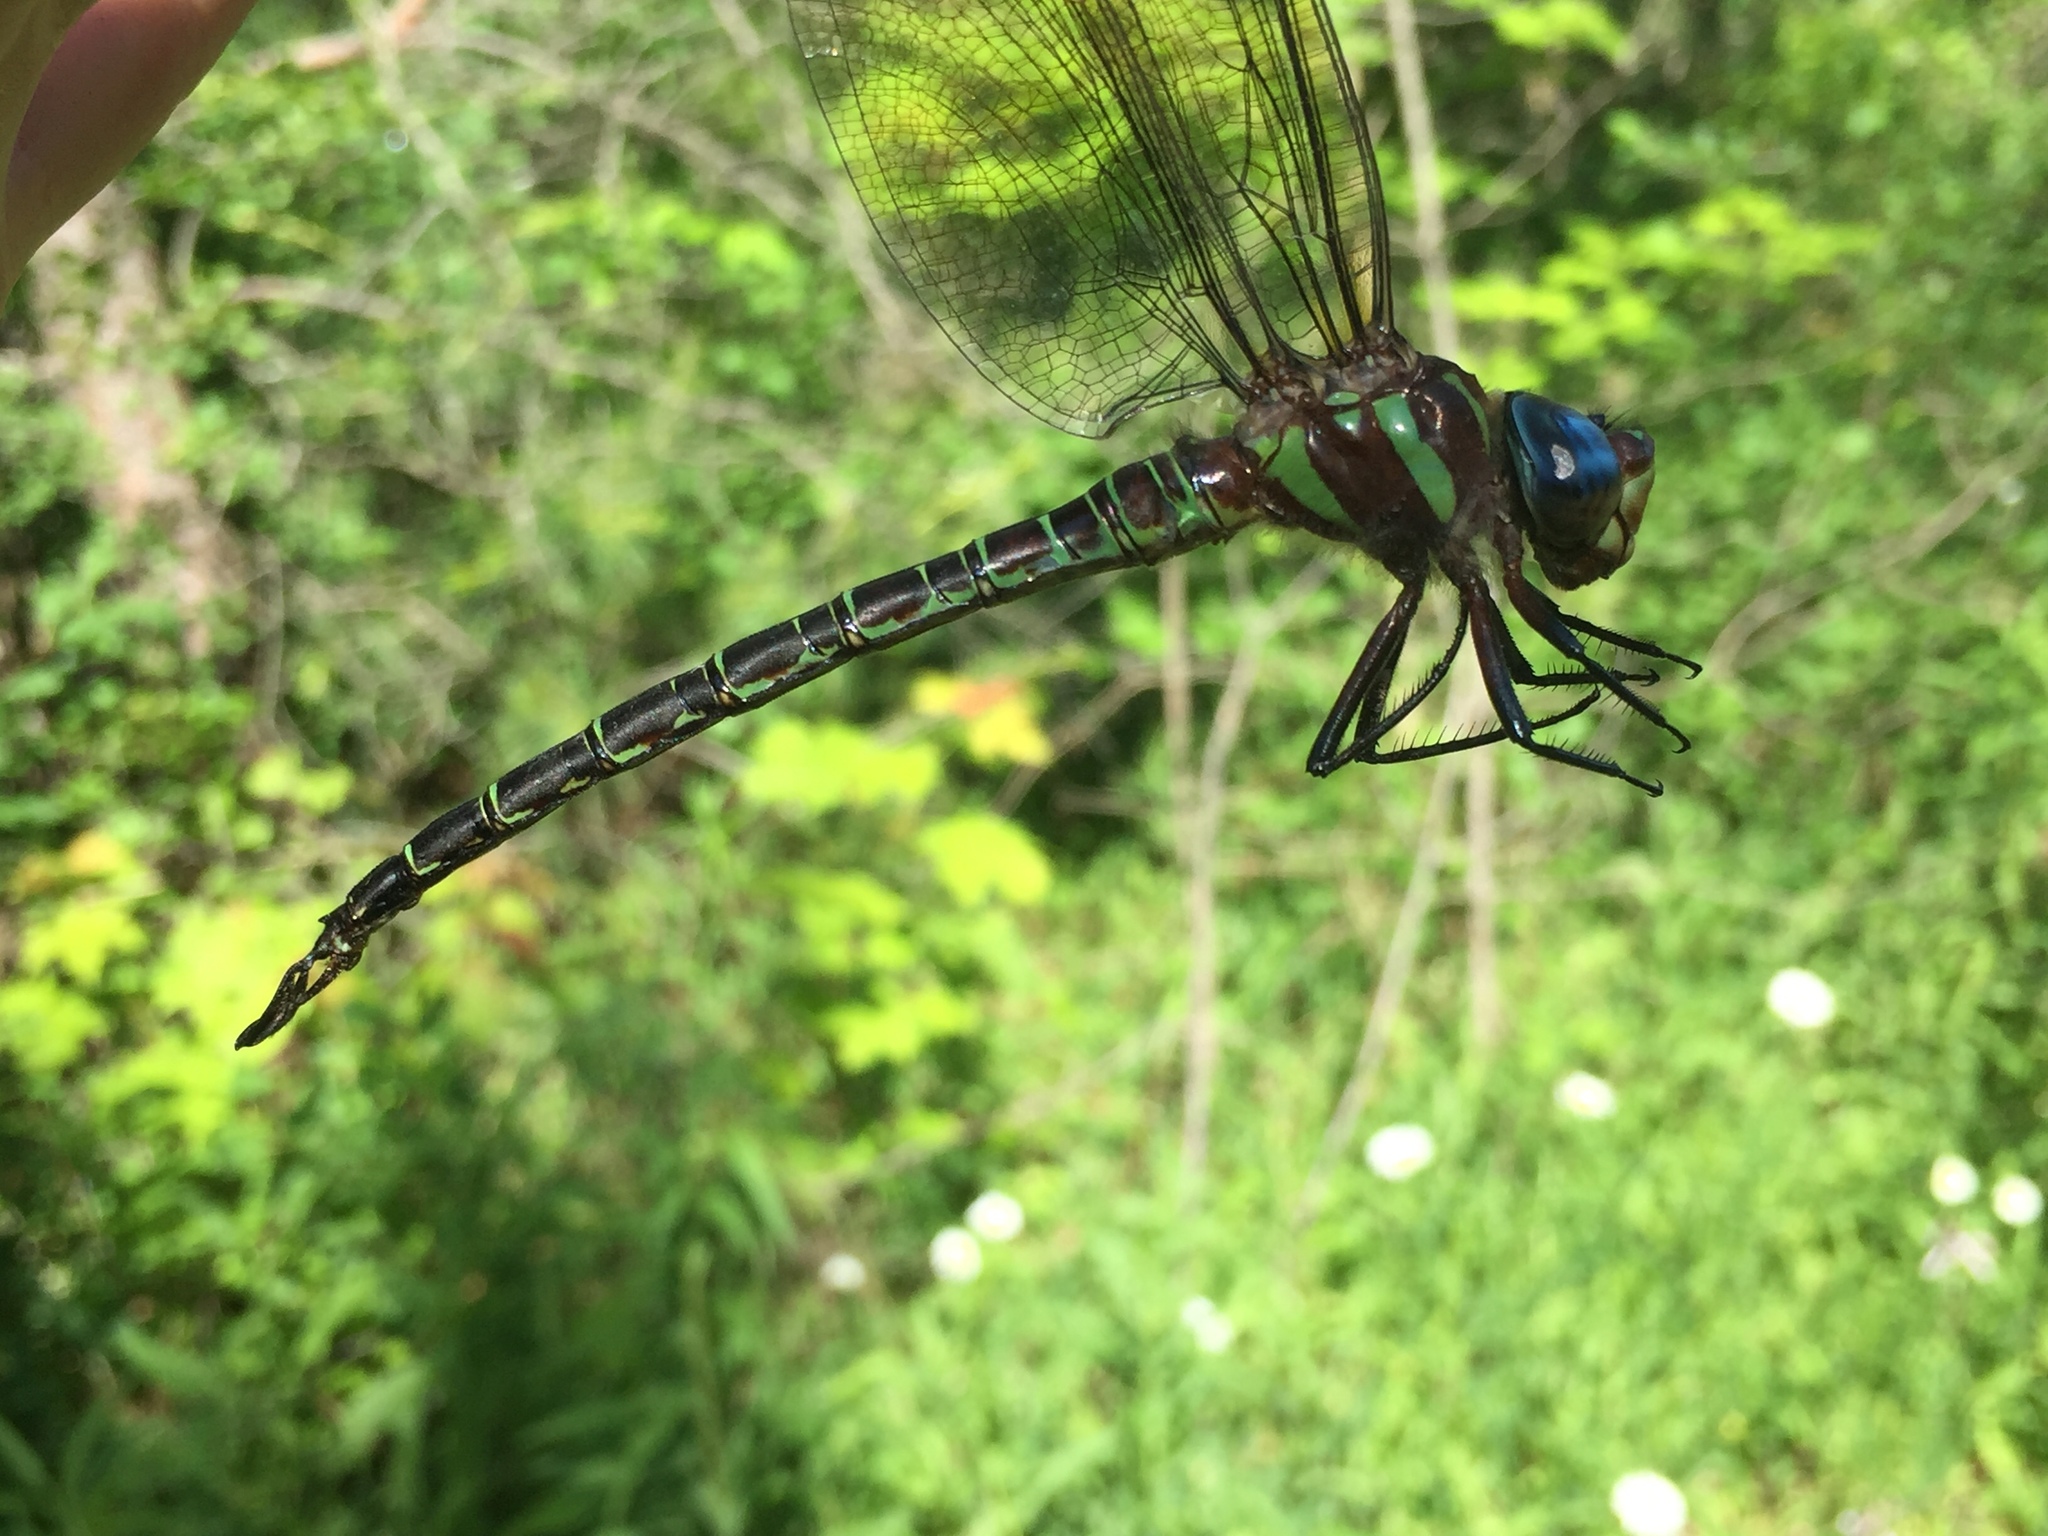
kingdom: Animalia
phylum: Arthropoda
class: Insecta
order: Odonata
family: Aeshnidae
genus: Epiaeschna
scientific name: Epiaeschna heros
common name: Swamp darner
